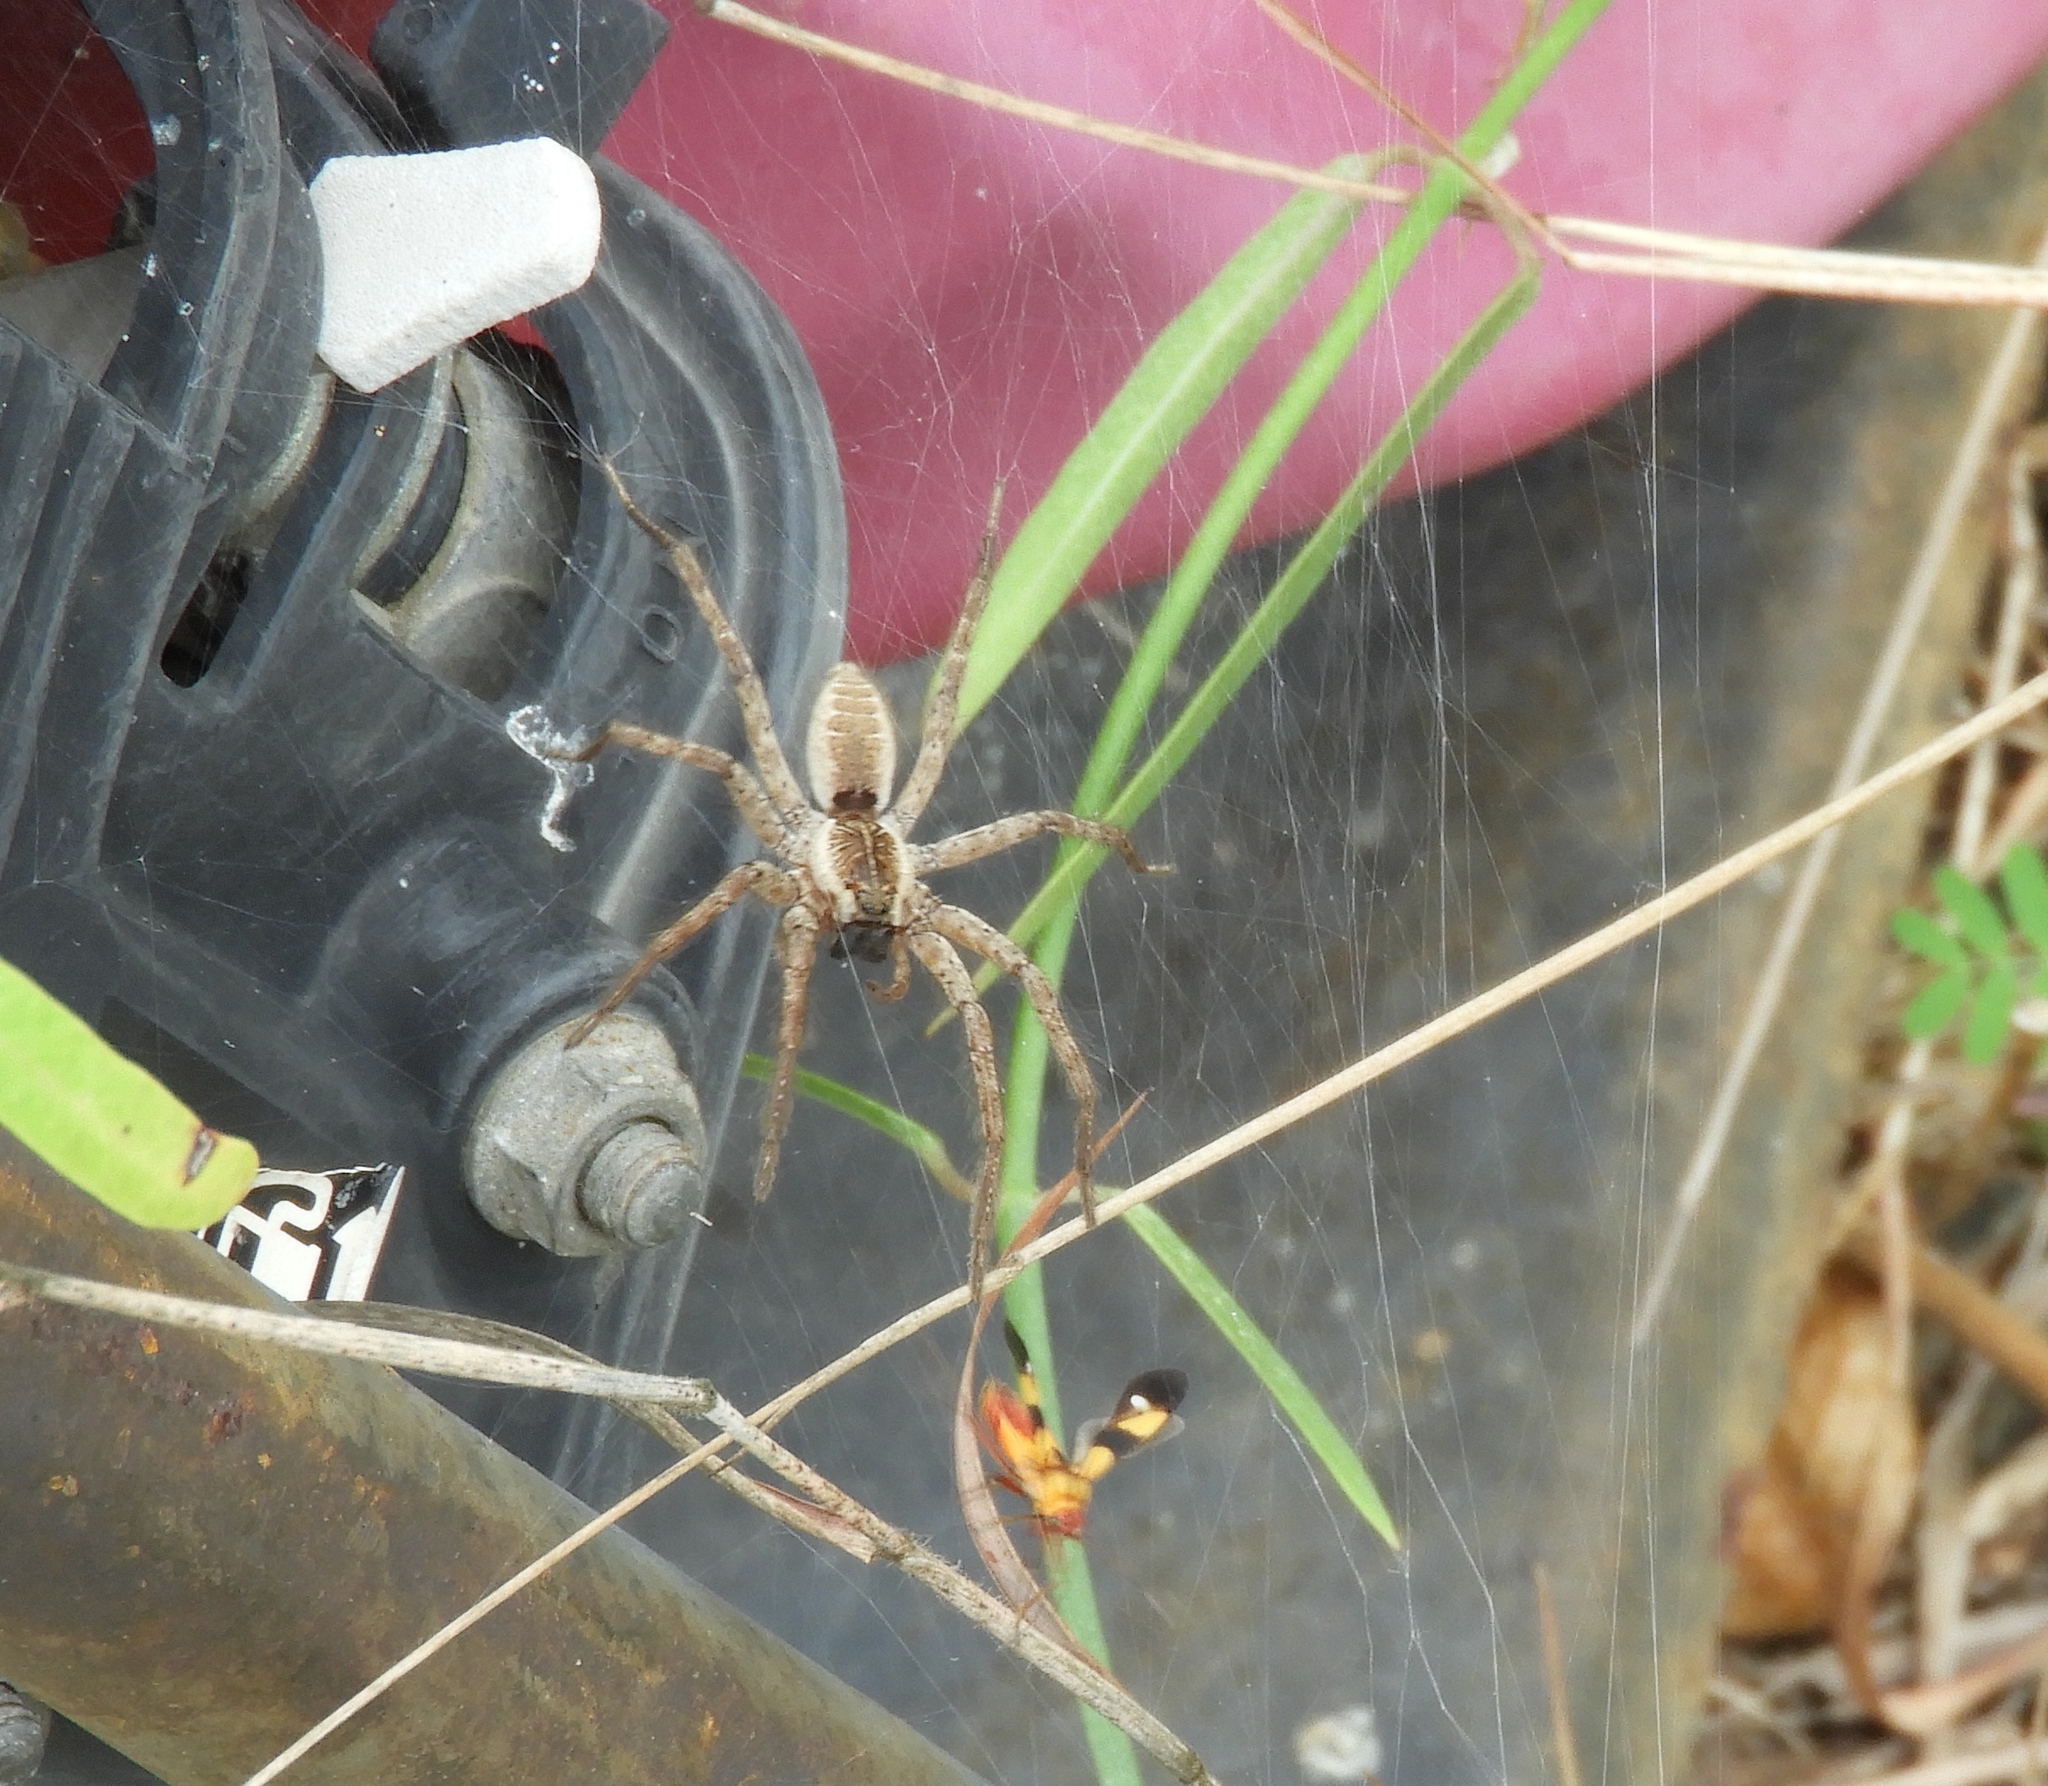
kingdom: Animalia
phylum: Arthropoda
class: Arachnida
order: Araneae
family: Lycosidae
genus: Sosippus
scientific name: Sosippus
